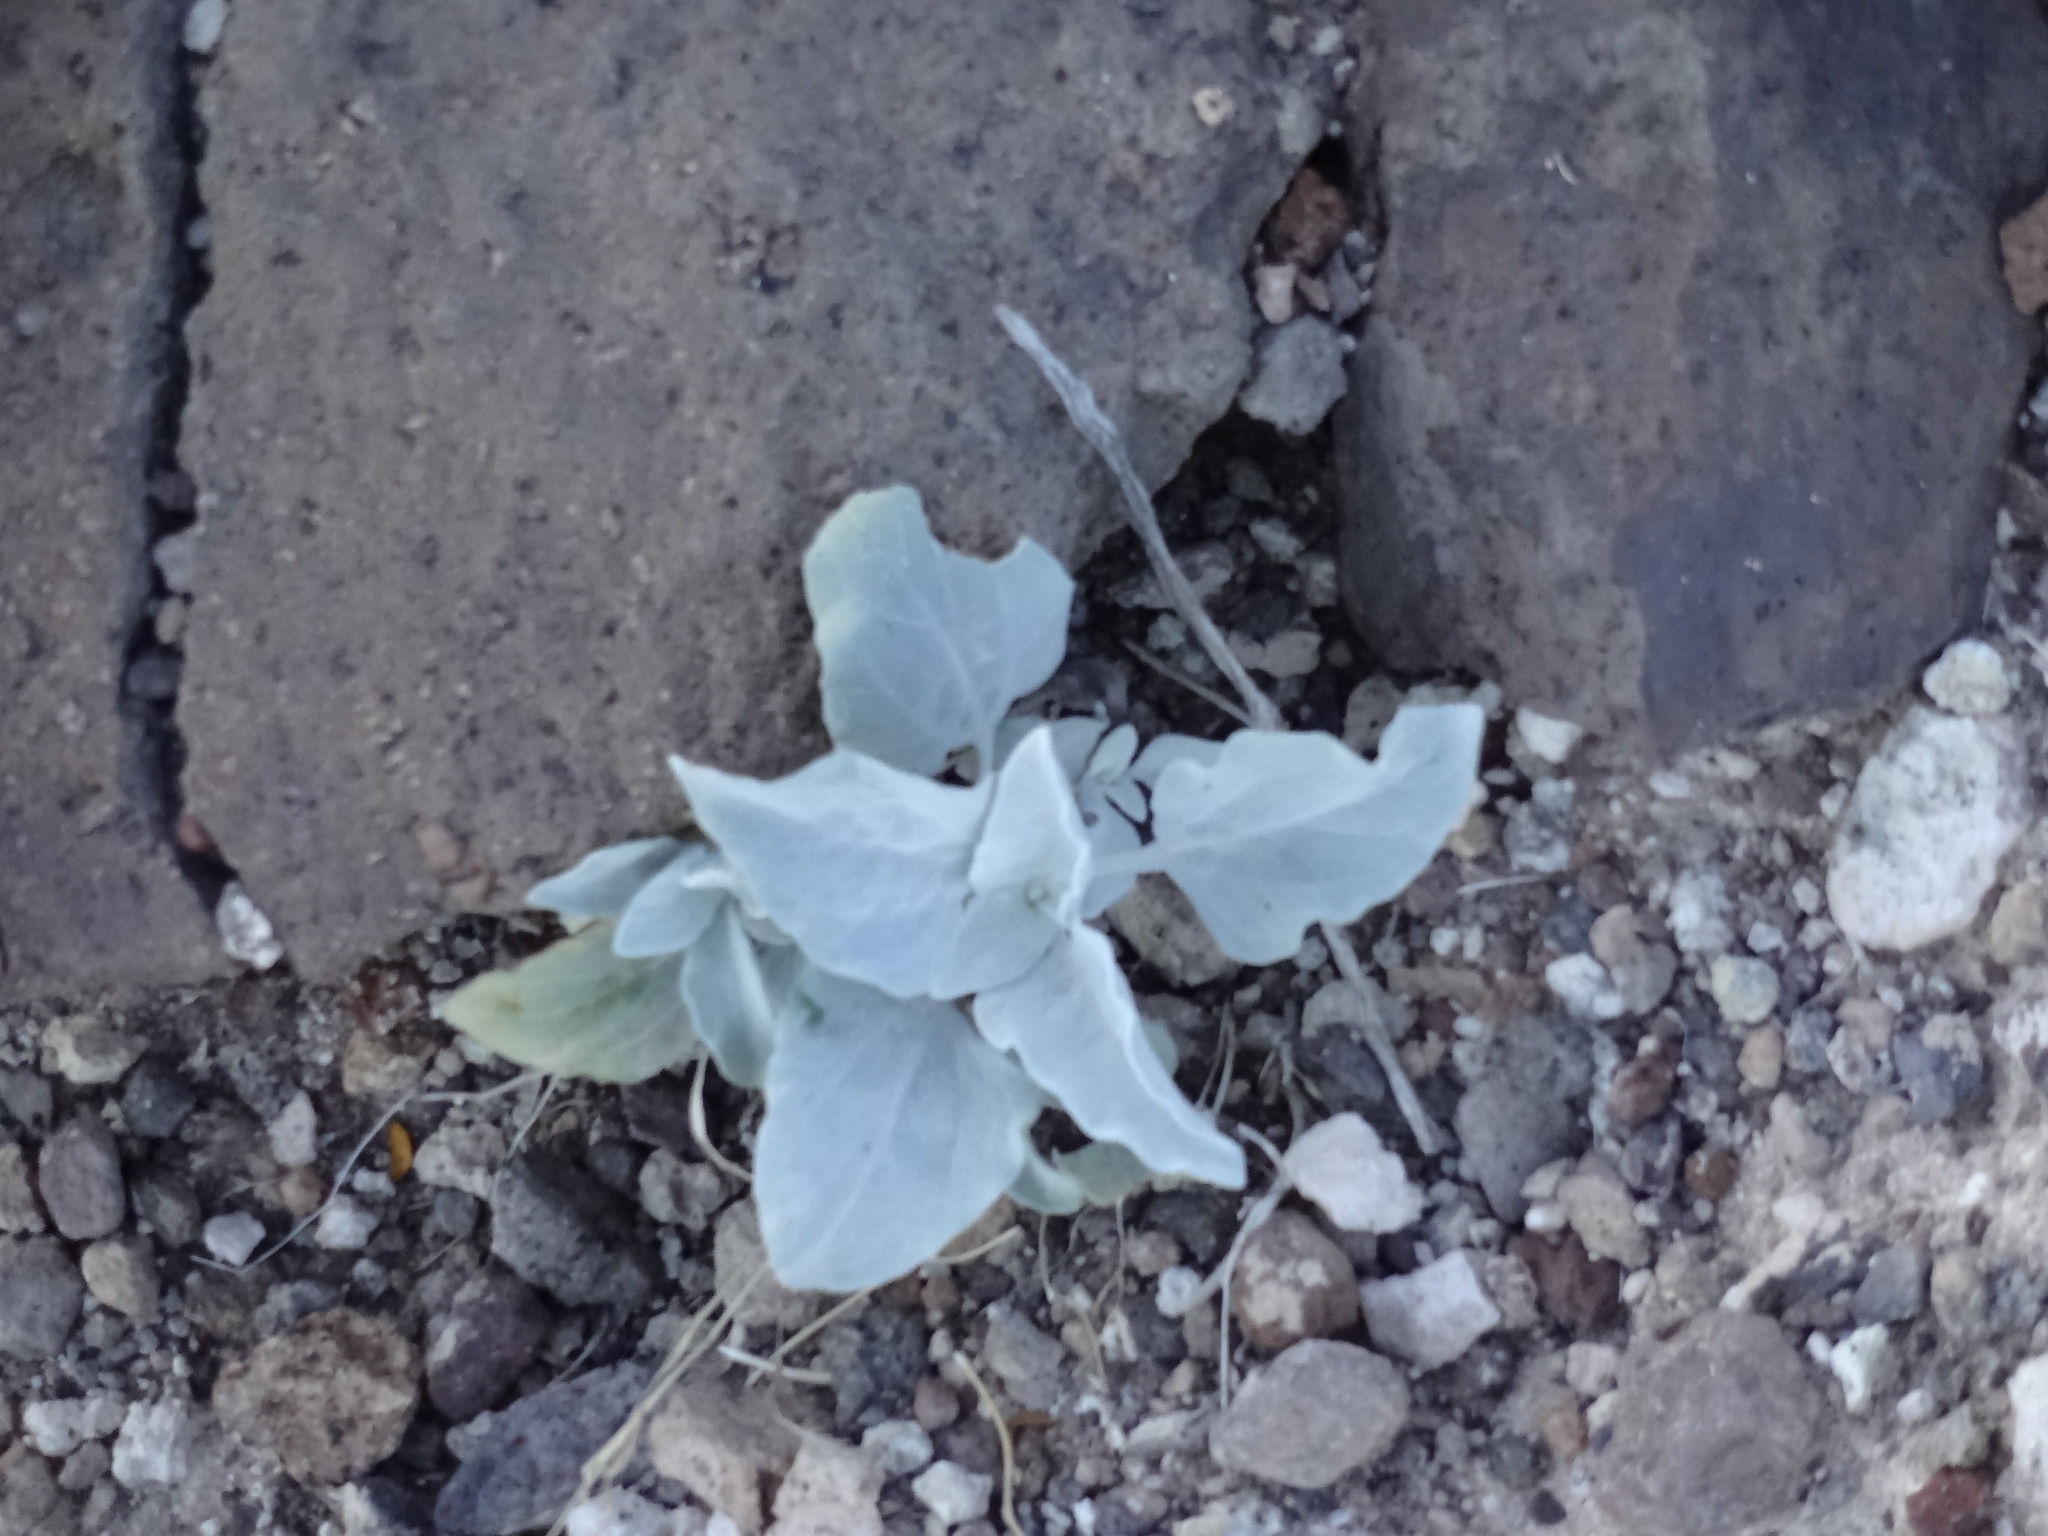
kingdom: Plantae
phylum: Tracheophyta
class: Magnoliopsida
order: Asterales
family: Asteraceae
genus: Encelia
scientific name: Encelia farinosa
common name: Brittlebush
